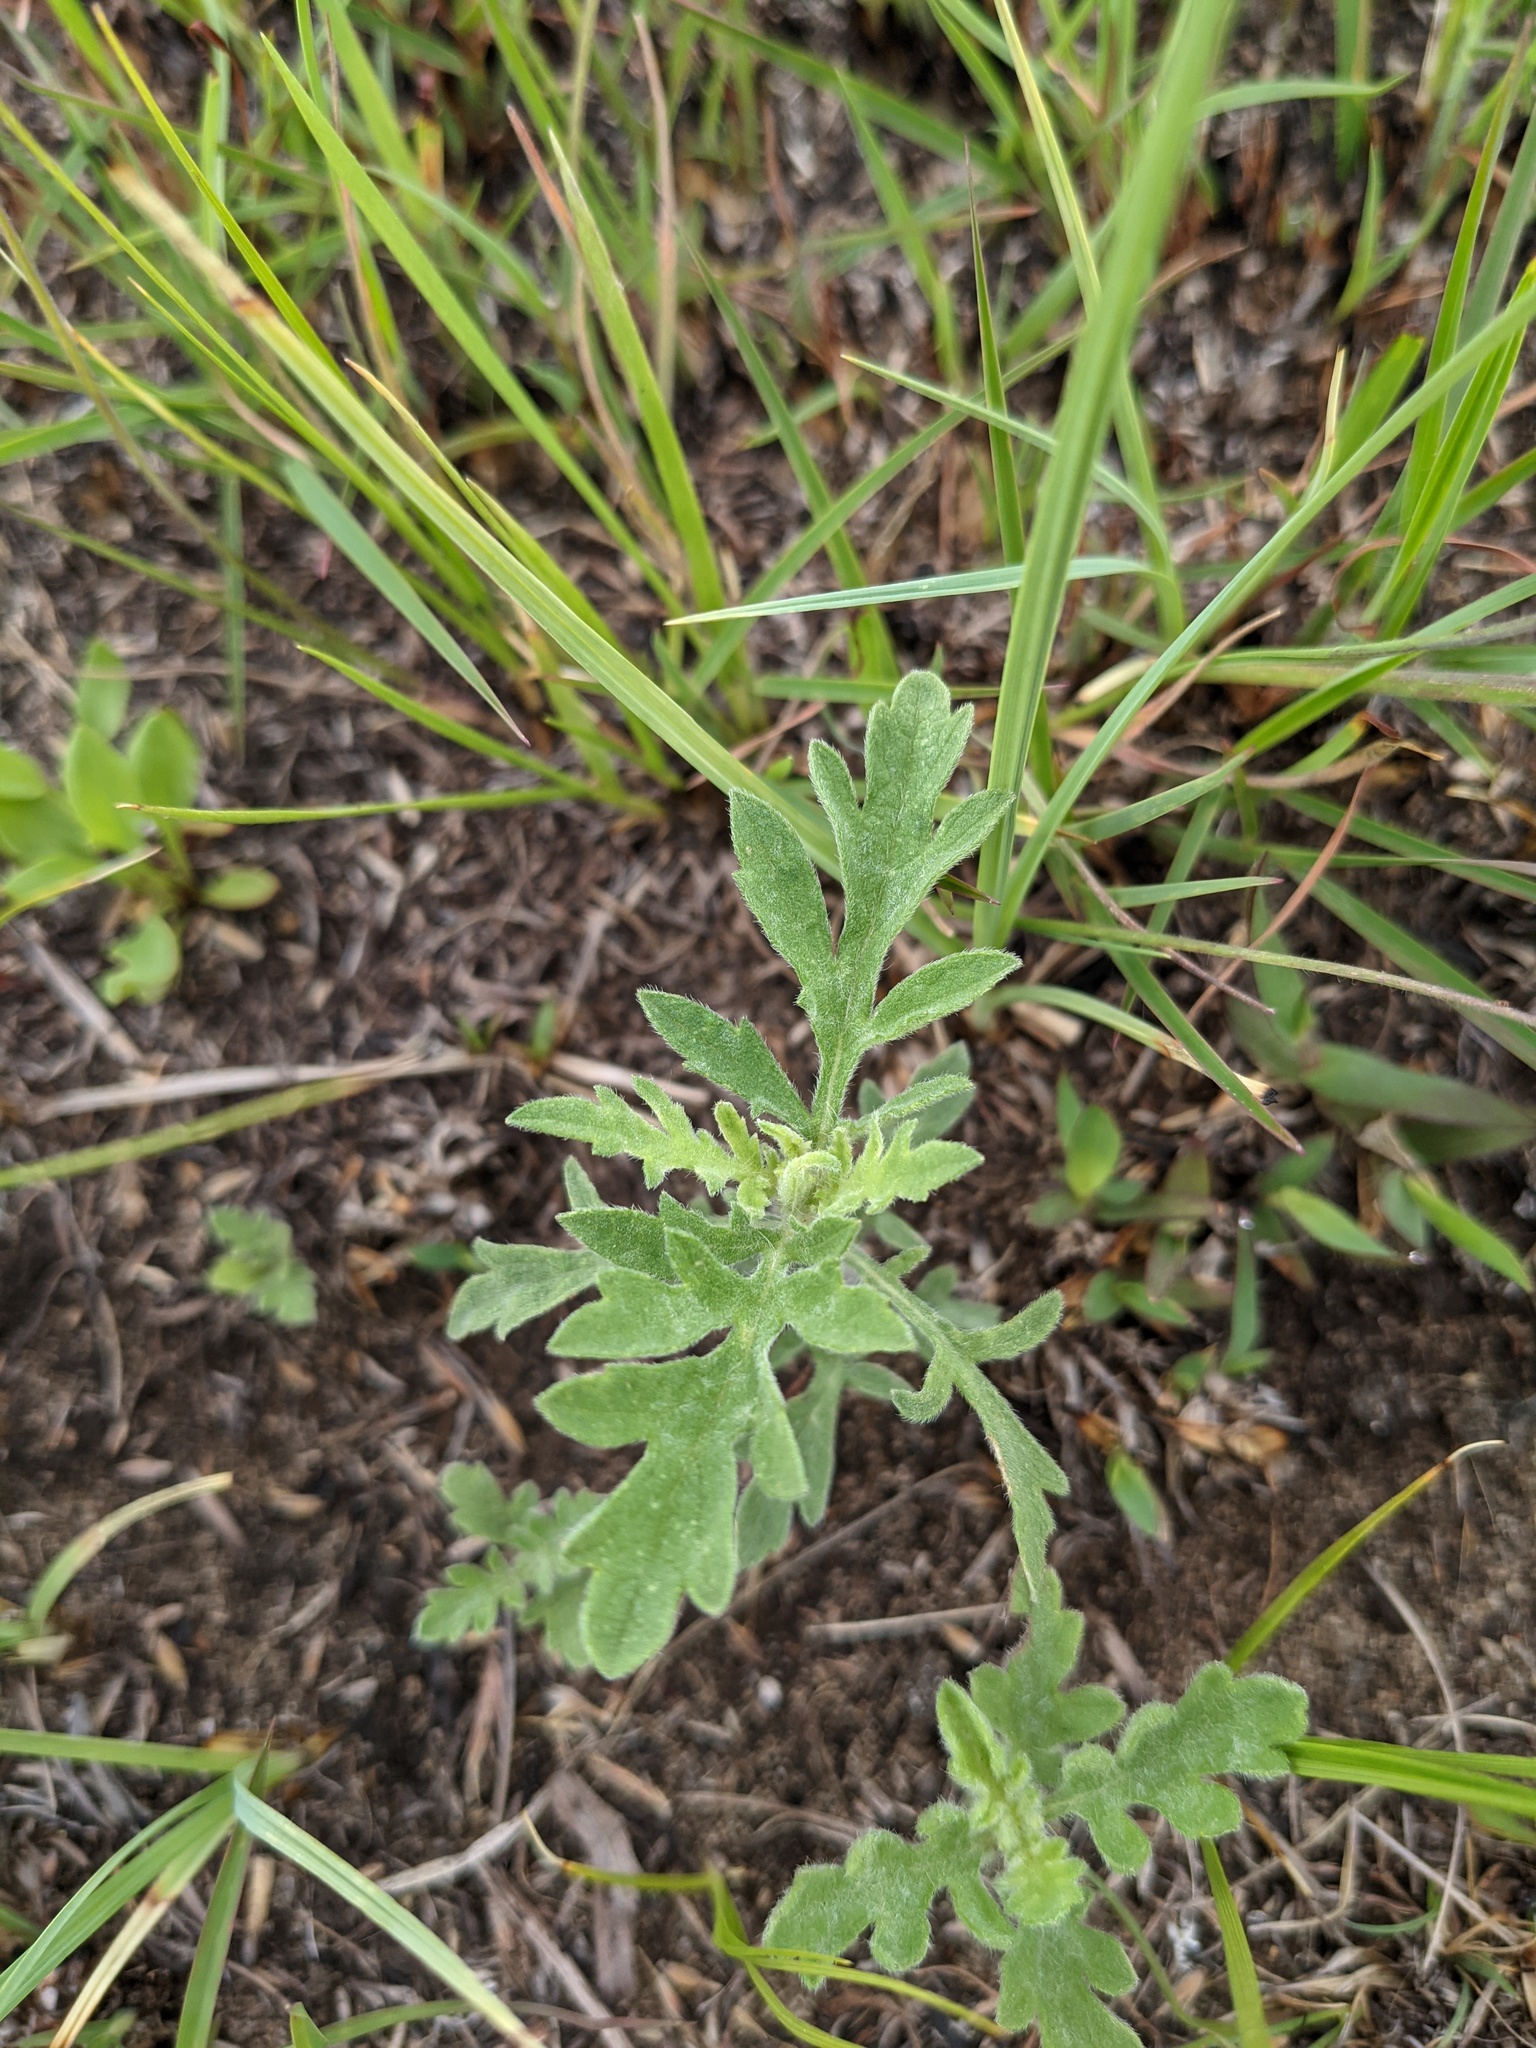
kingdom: Plantae
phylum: Tracheophyta
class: Magnoliopsida
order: Asterales
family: Asteraceae
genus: Ambrosia
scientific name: Ambrosia psilostachya
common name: Perennial ragweed
